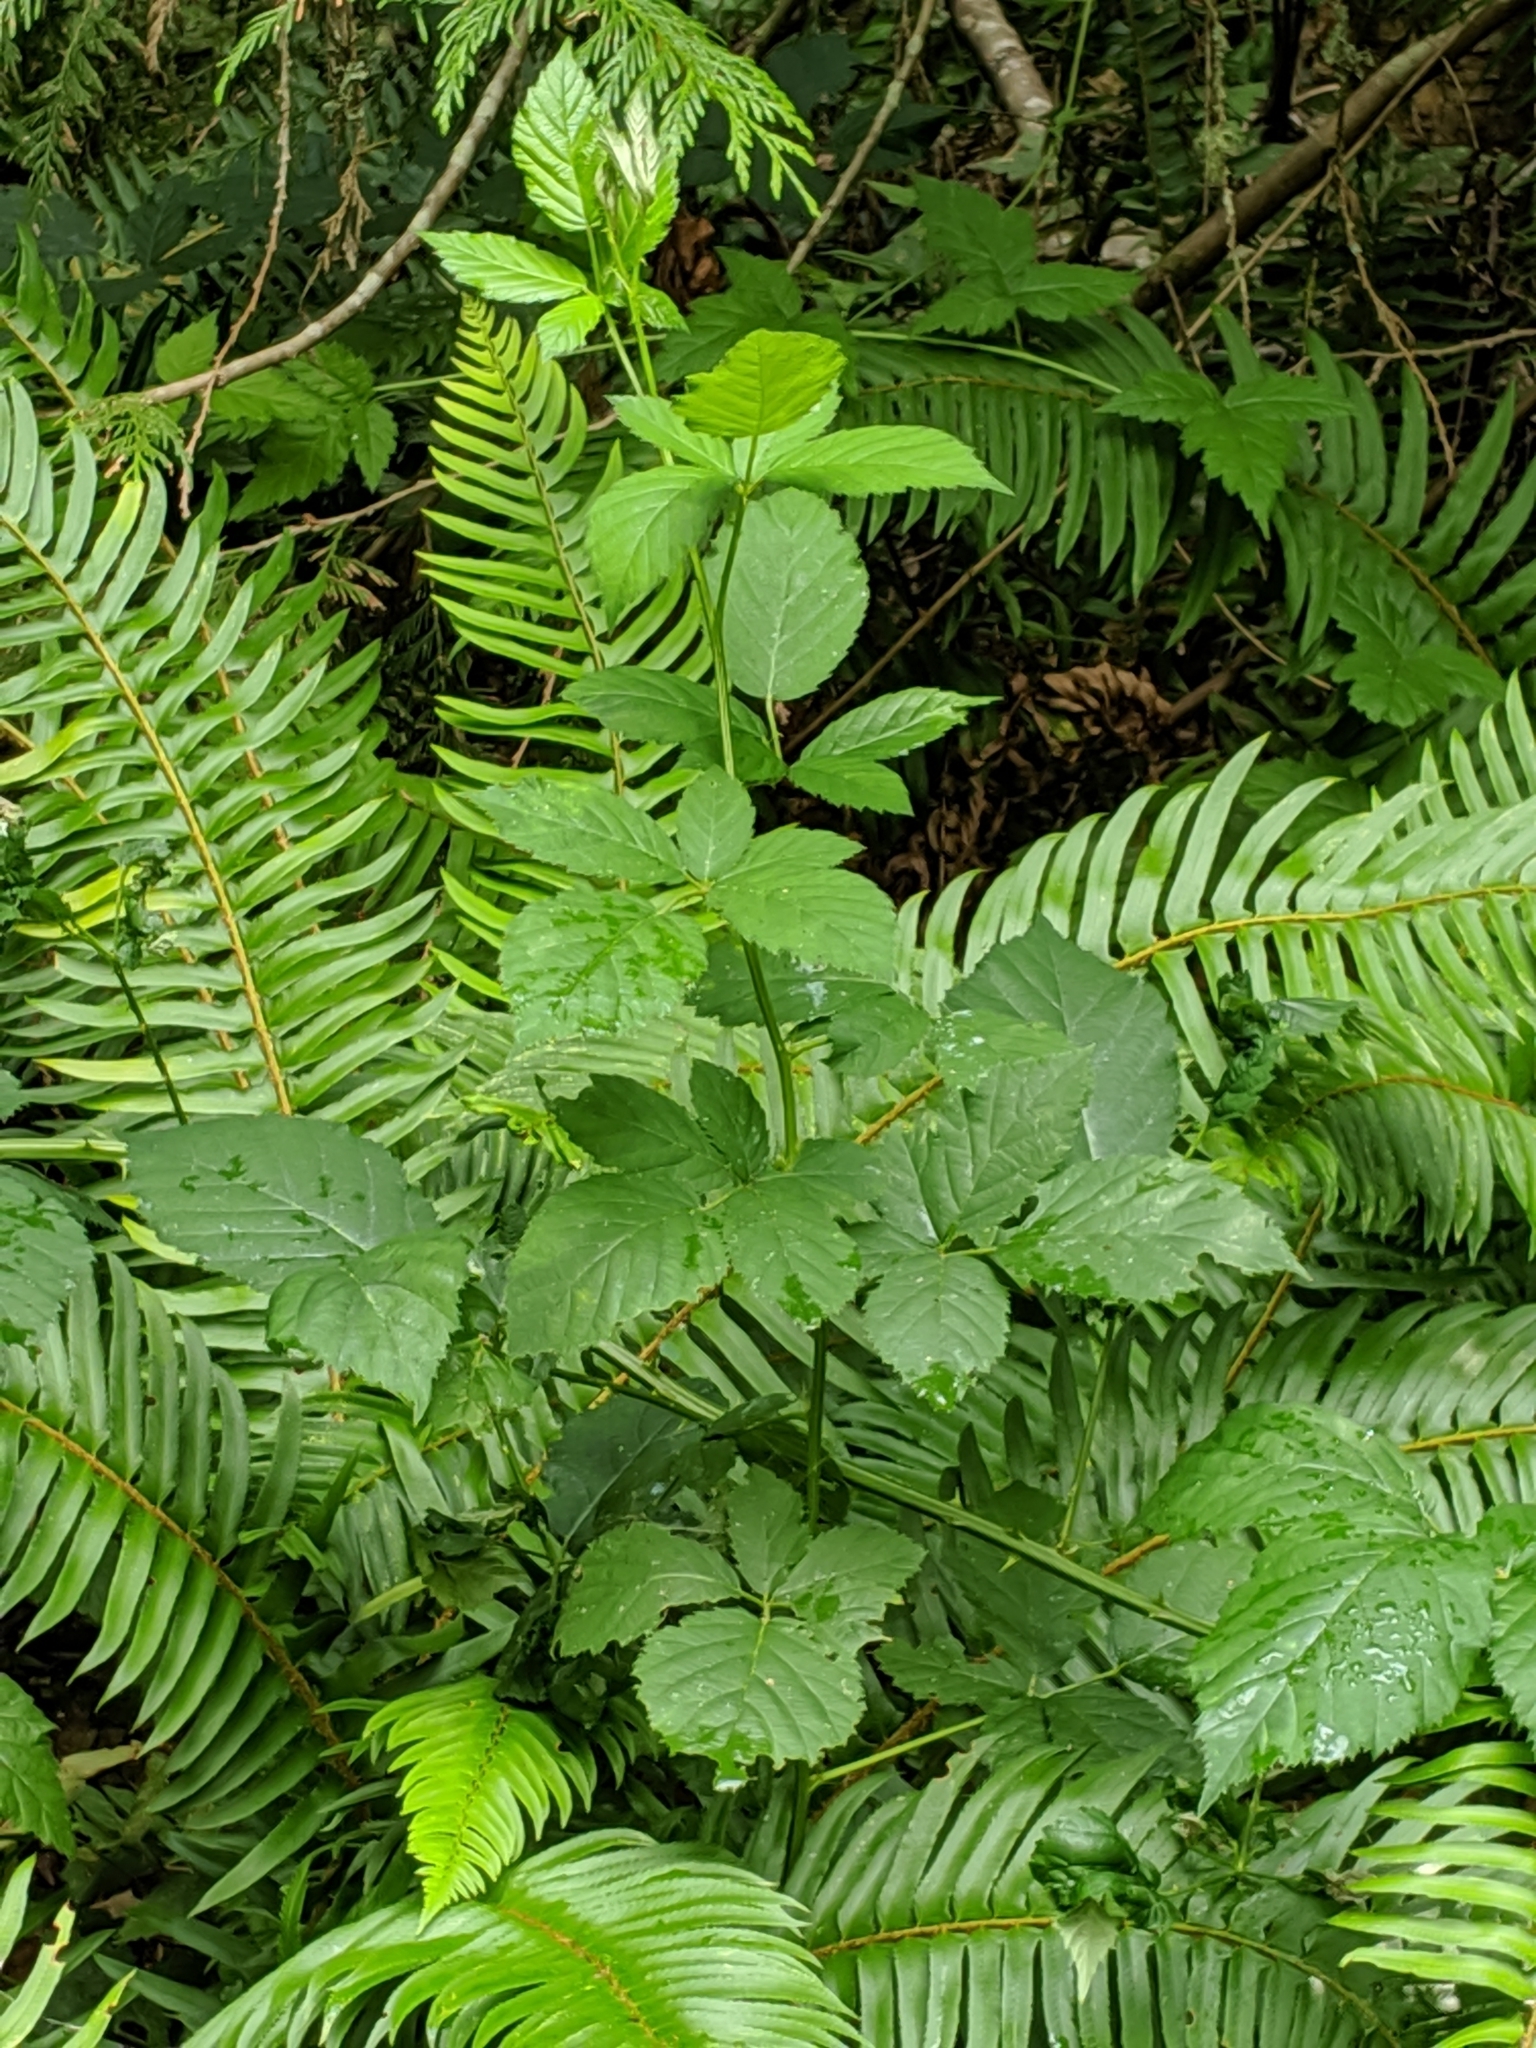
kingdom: Plantae
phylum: Tracheophyta
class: Magnoliopsida
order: Rosales
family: Rosaceae
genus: Rubus
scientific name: Rubus bifrons
